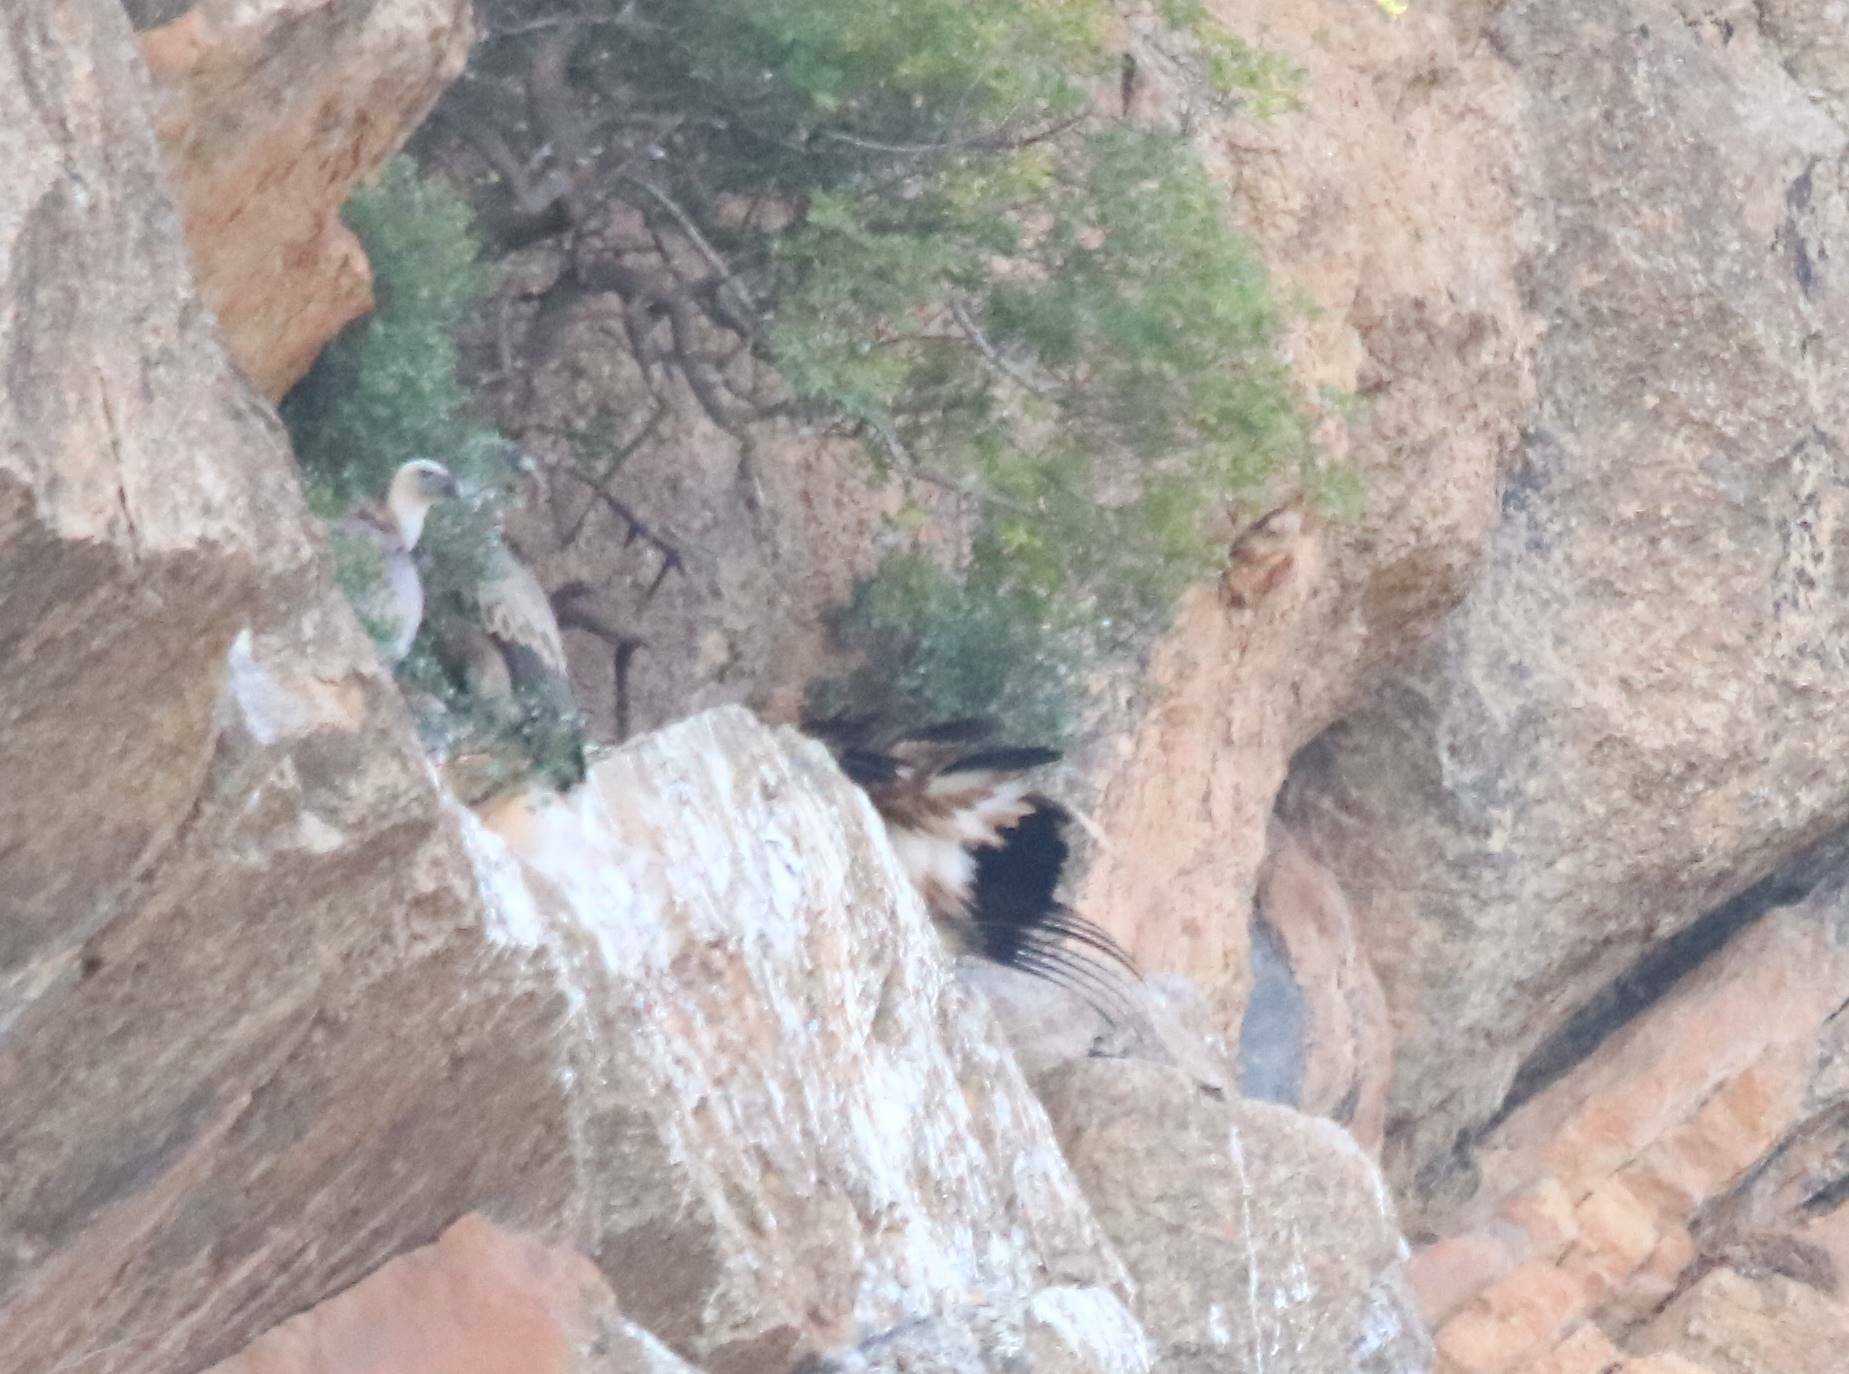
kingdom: Animalia
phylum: Chordata
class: Aves
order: Accipitriformes
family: Accipitridae
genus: Gyps
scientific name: Gyps fulvus
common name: Griffon vulture
